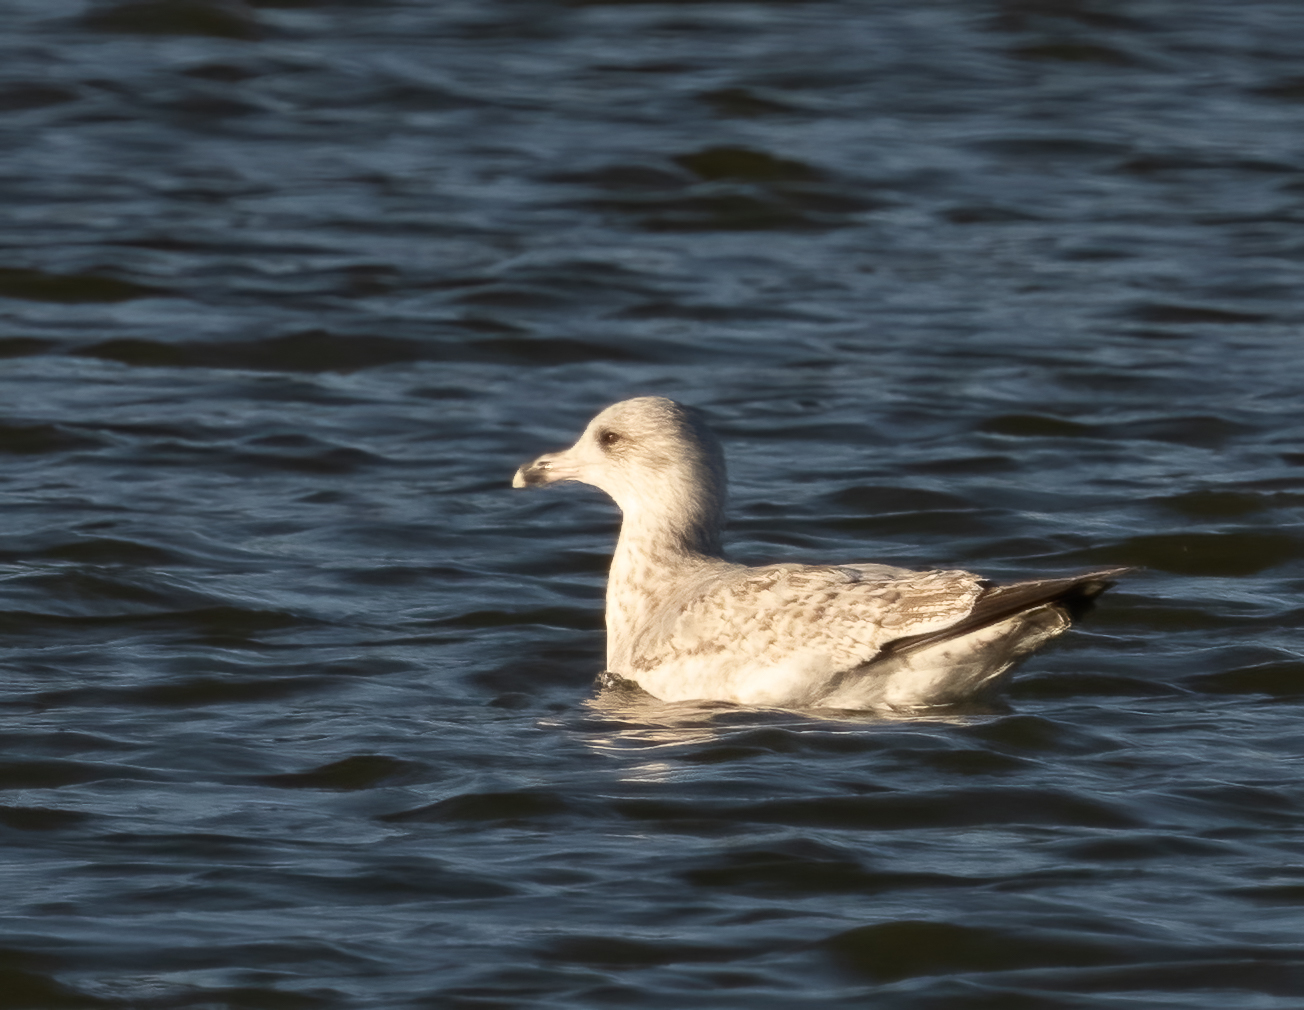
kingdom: Animalia
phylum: Chordata
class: Aves
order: Charadriiformes
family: Laridae
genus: Larus
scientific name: Larus argentatus
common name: Herring gull
